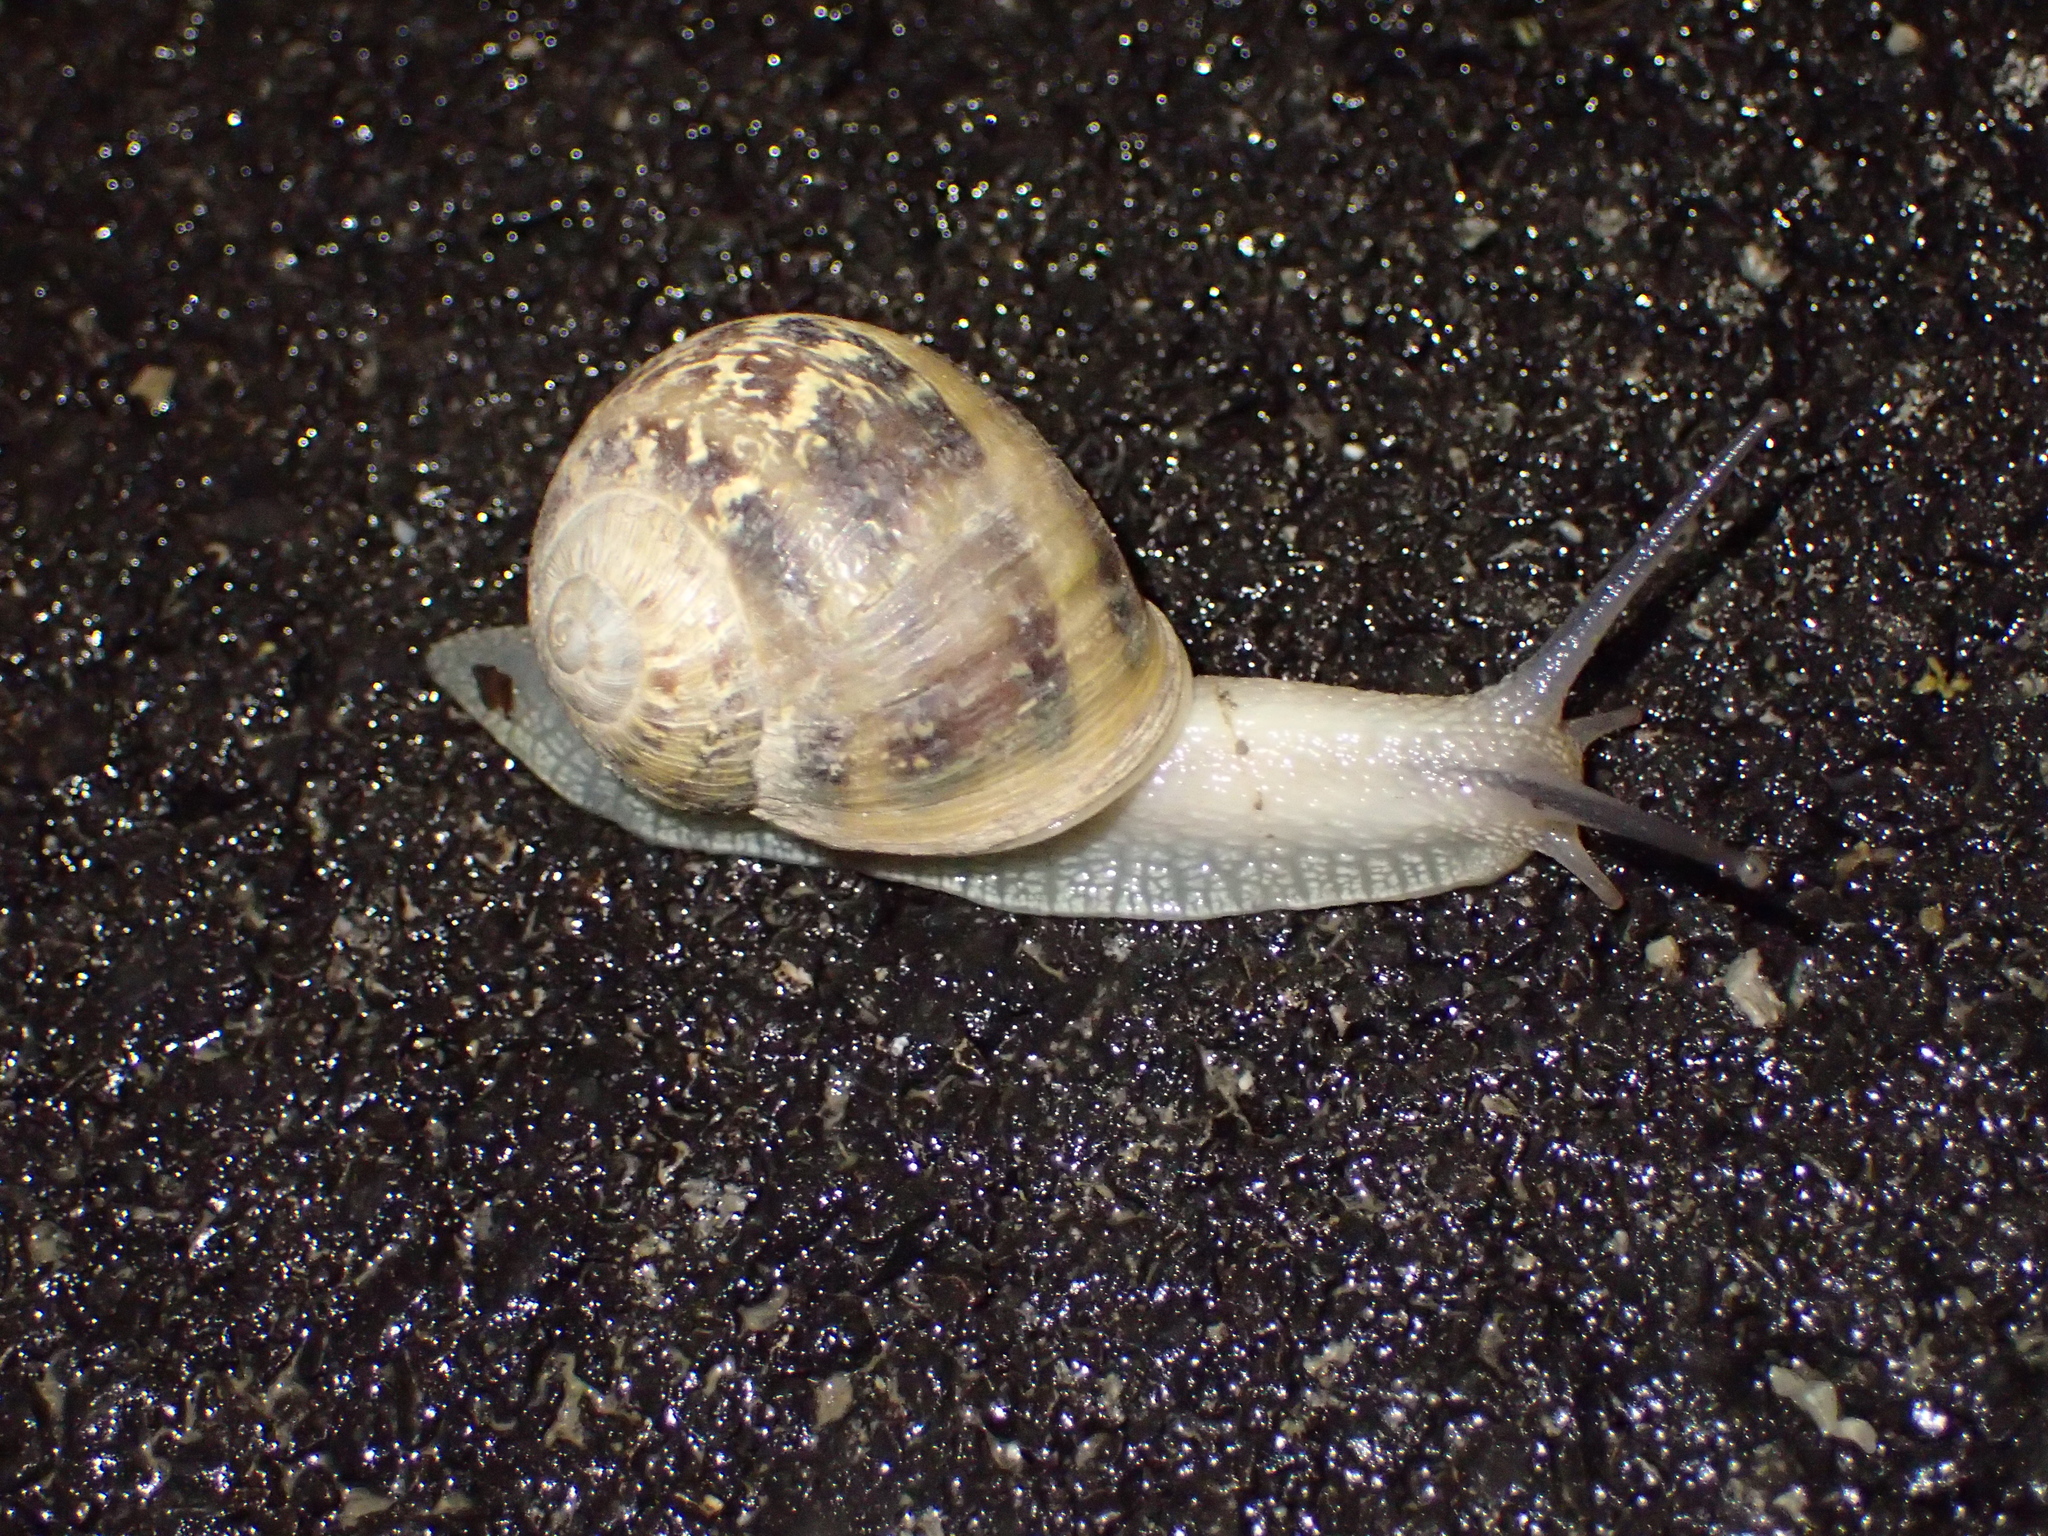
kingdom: Animalia
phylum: Mollusca
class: Gastropoda
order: Stylommatophora
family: Helicidae
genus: Cornu
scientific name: Cornu aspersum
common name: Brown garden snail
